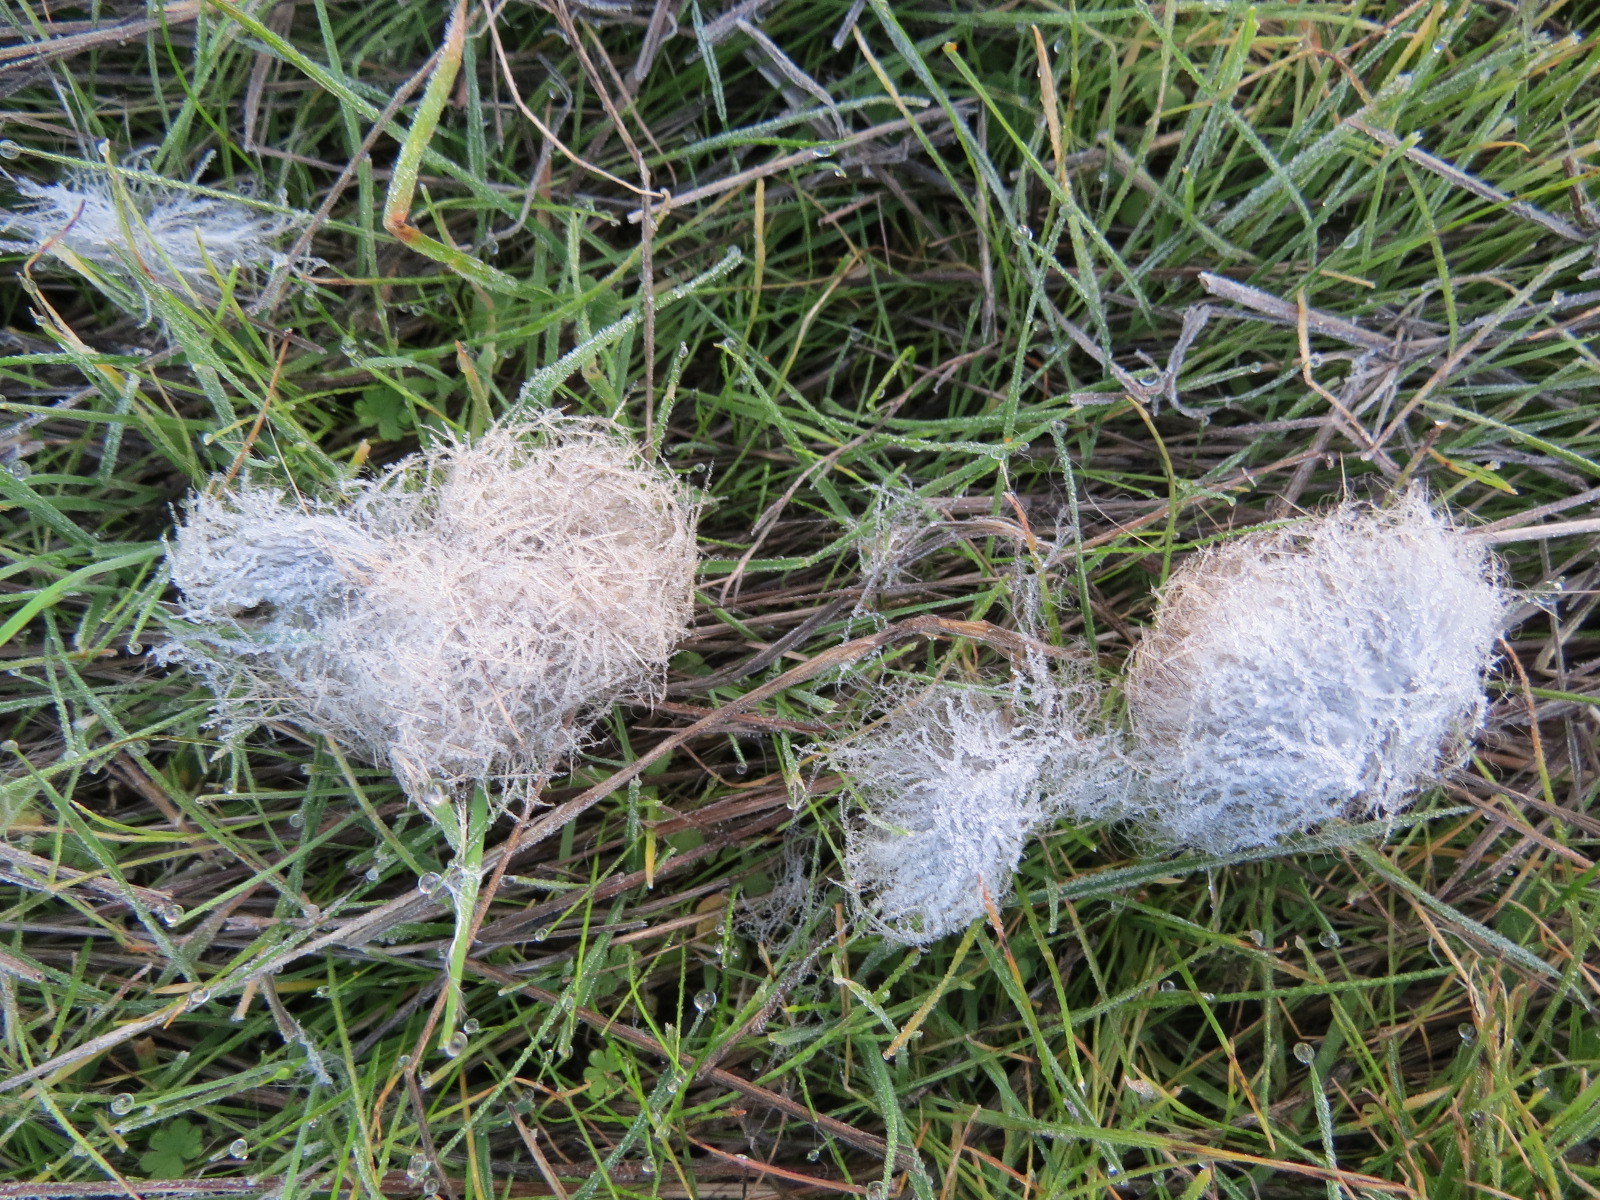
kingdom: Animalia
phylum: Chordata
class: Mammalia
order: Lagomorpha
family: Leporidae
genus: Lepus
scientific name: Lepus californicus
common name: Black-tailed jackrabbit
